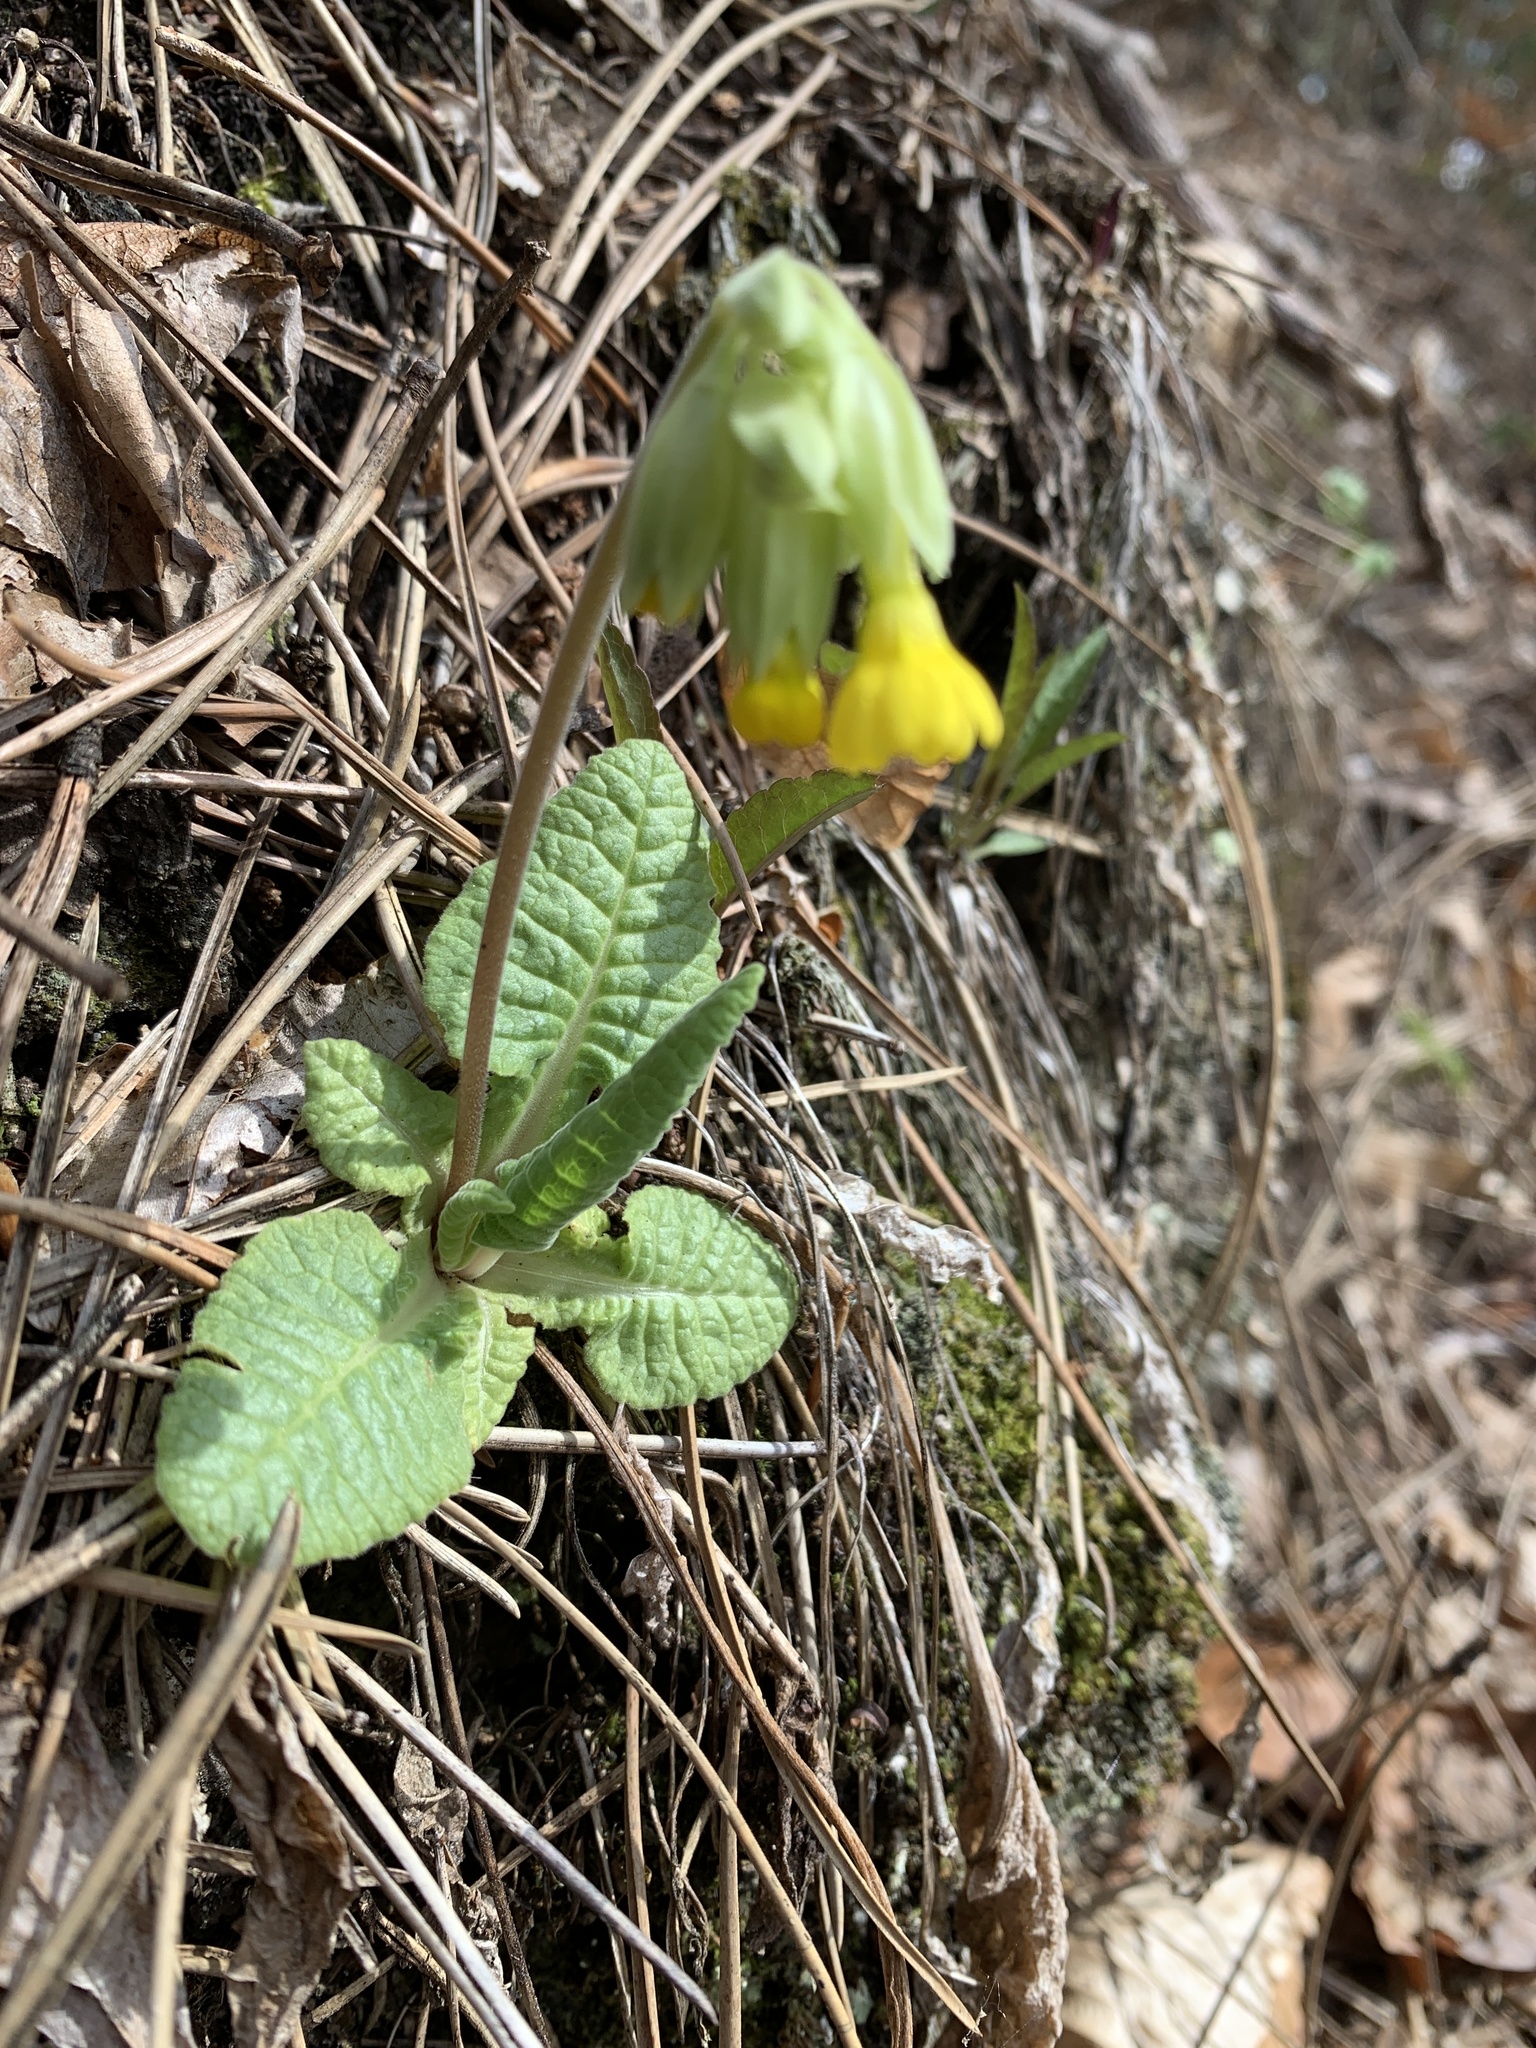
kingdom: Plantae
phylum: Tracheophyta
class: Magnoliopsida
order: Ericales
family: Primulaceae
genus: Primula
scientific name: Primula veris
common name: Cowslip
